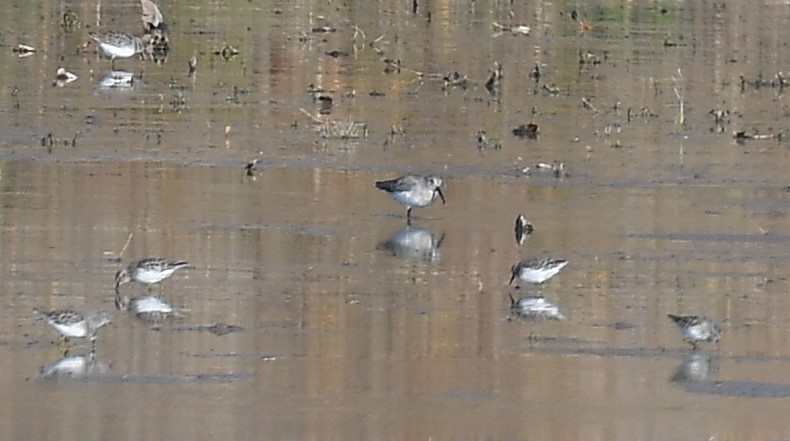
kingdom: Animalia
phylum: Chordata
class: Aves
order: Charadriiformes
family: Scolopacidae
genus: Calidris
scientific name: Calidris alpina
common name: Dunlin
